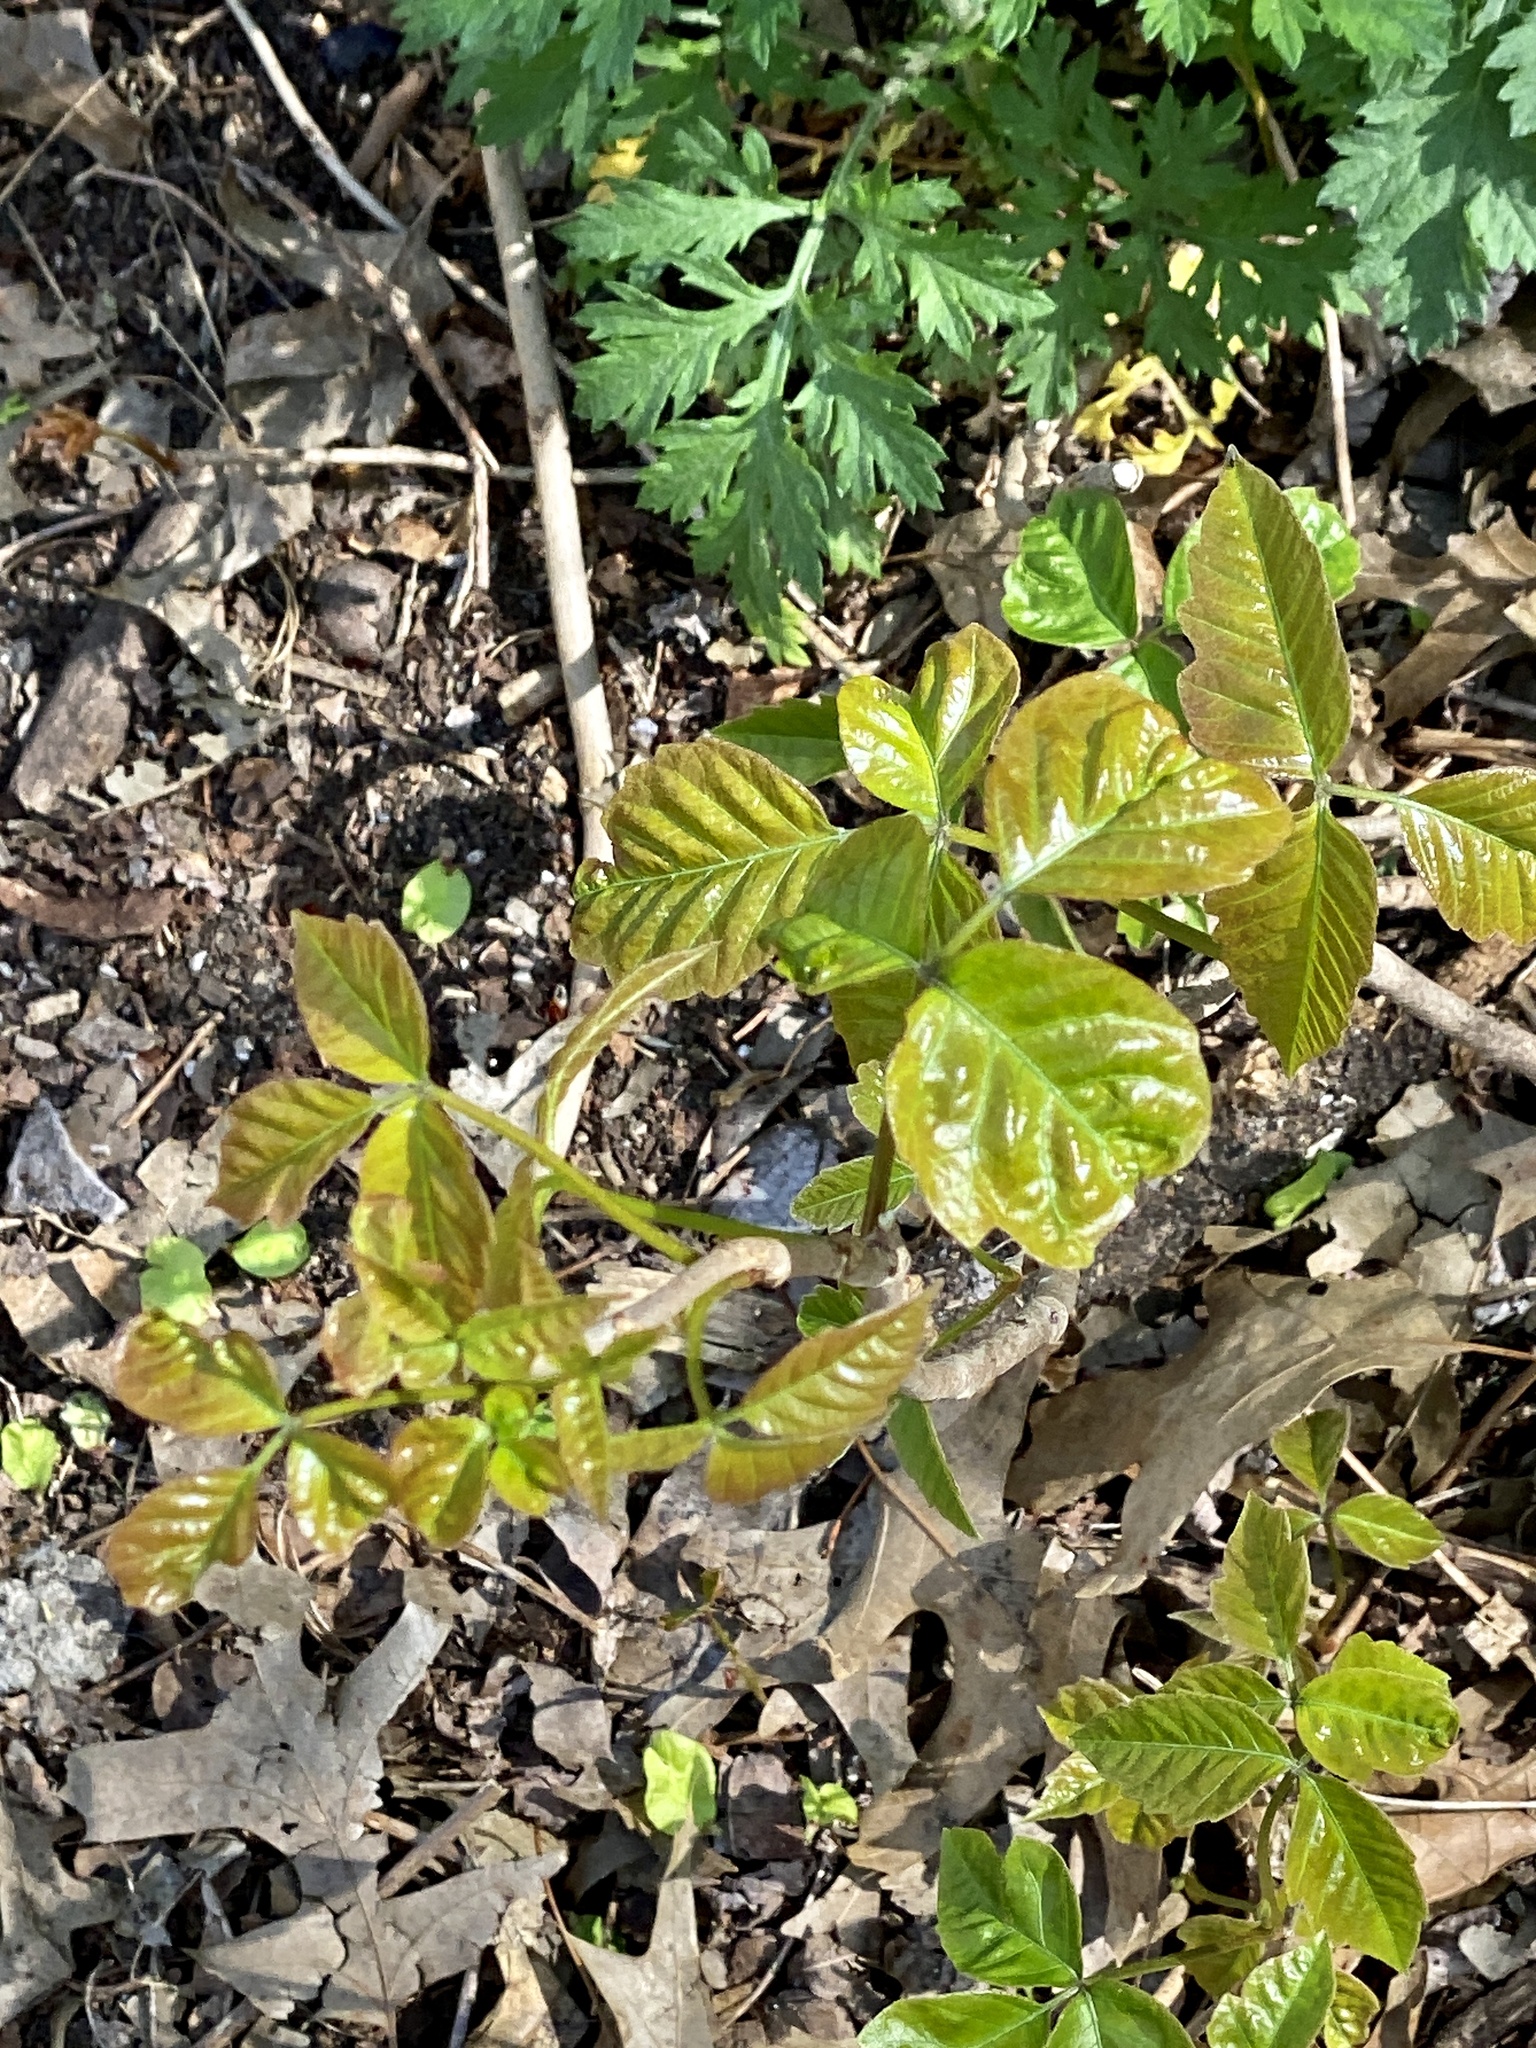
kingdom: Plantae
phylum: Tracheophyta
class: Magnoliopsida
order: Sapindales
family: Anacardiaceae
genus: Toxicodendron
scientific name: Toxicodendron radicans
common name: Poison ivy
